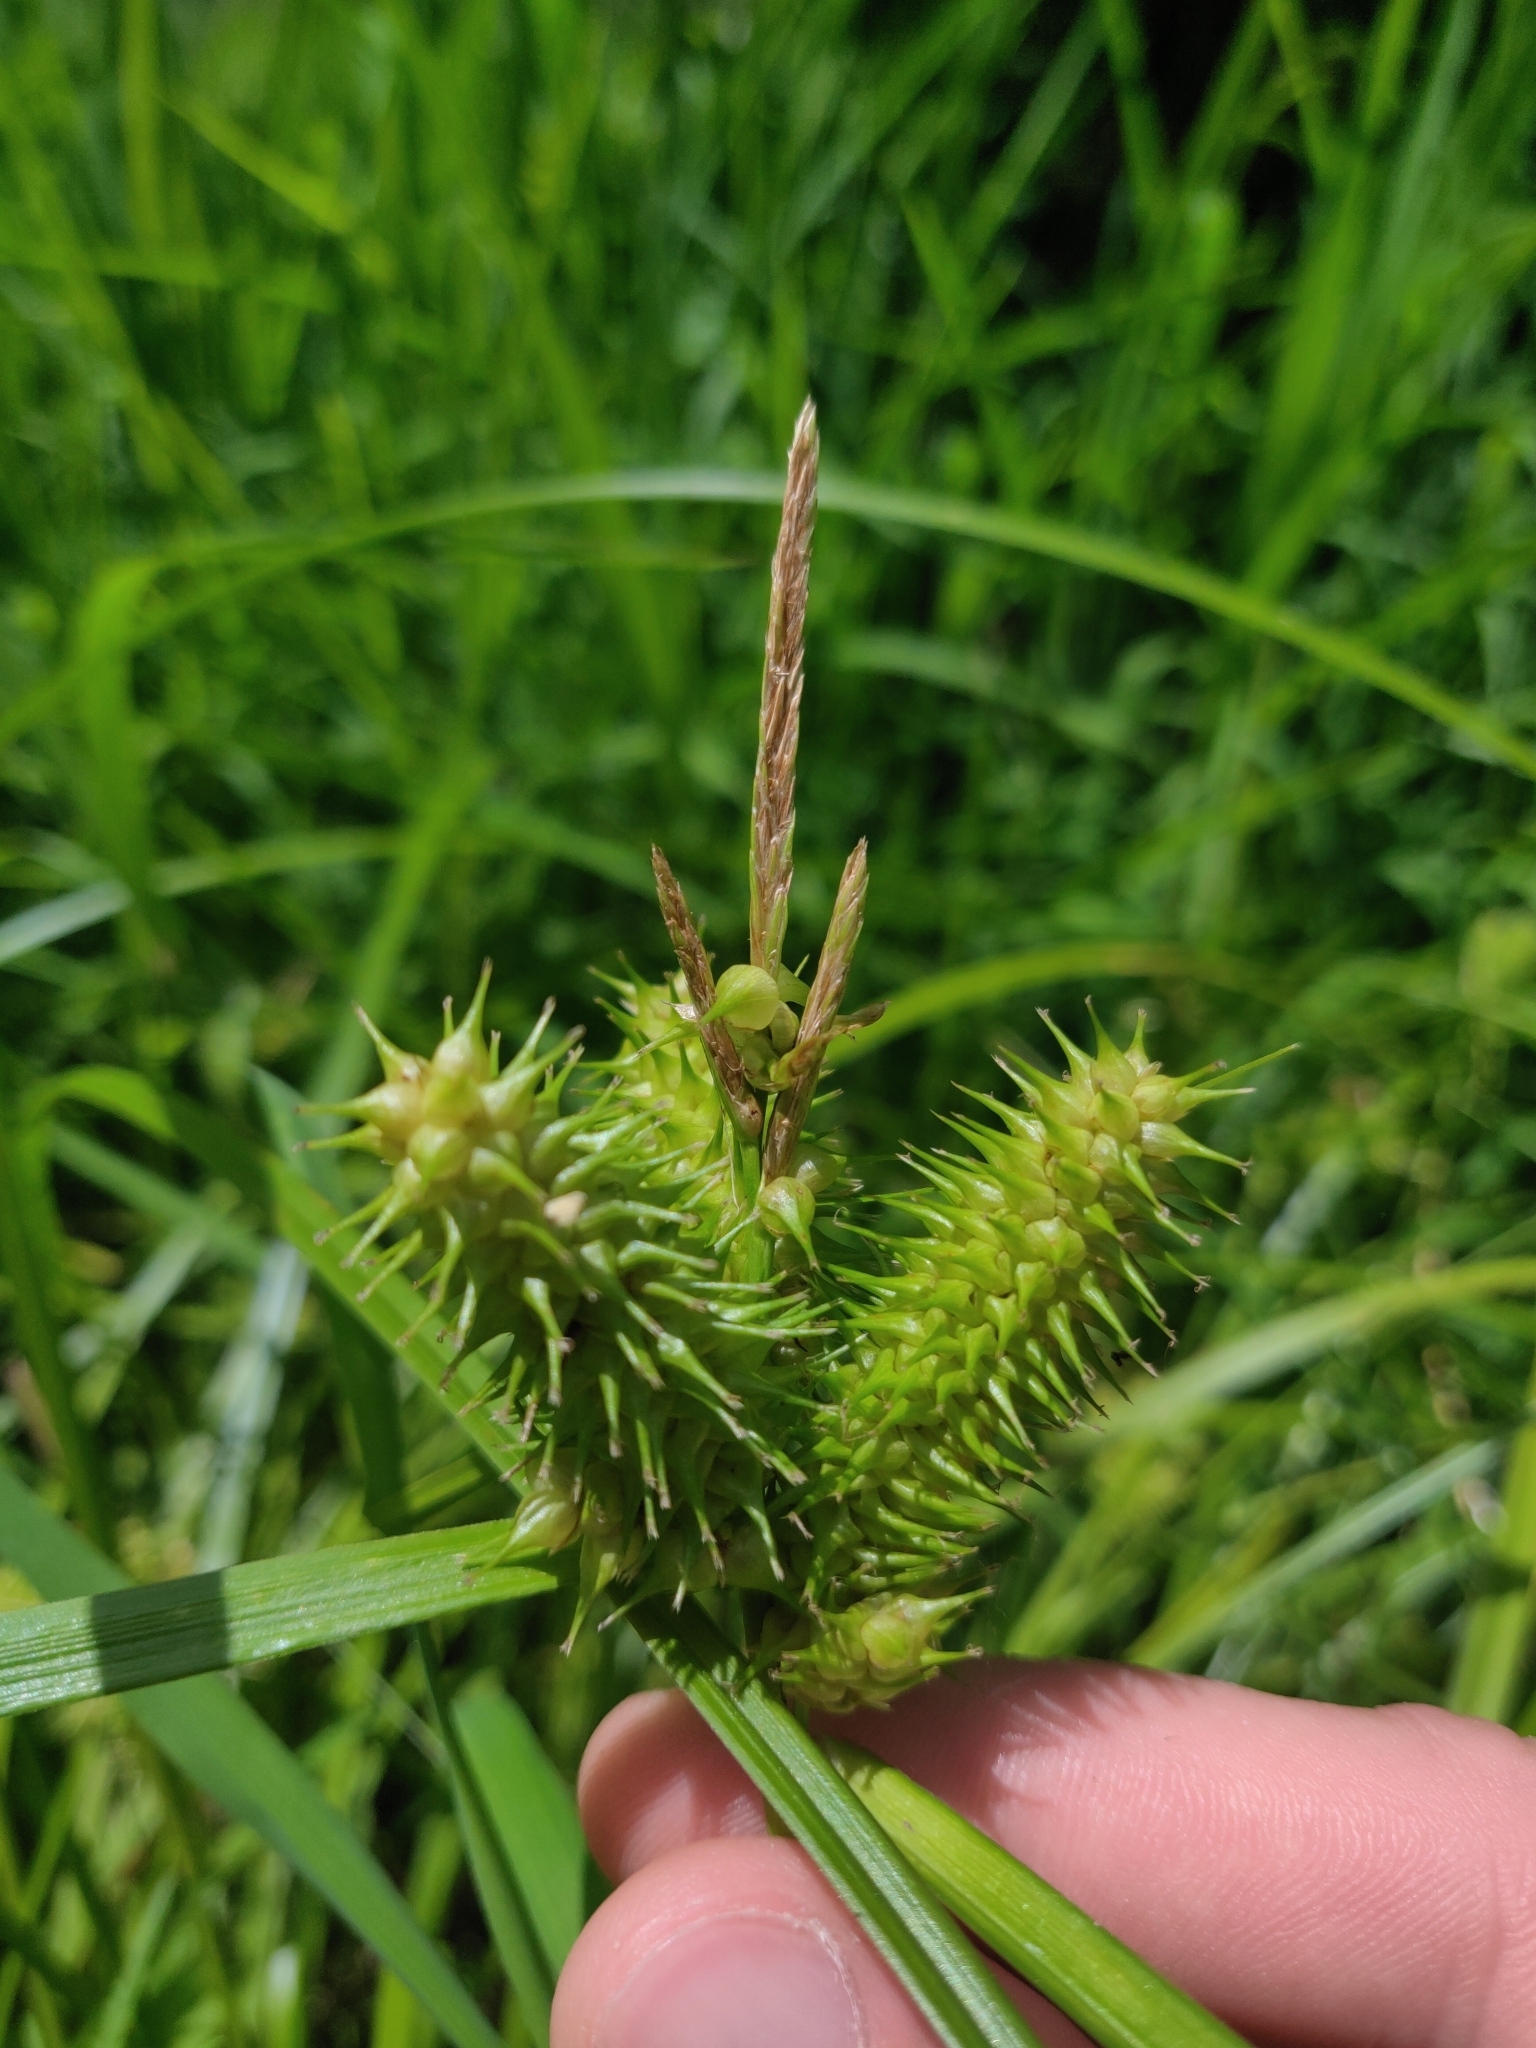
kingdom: Plantae
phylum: Tracheophyta
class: Liliopsida
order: Poales
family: Cyperaceae
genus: Carex
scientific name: Carex retrorsa
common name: Knot-sheath sedge
